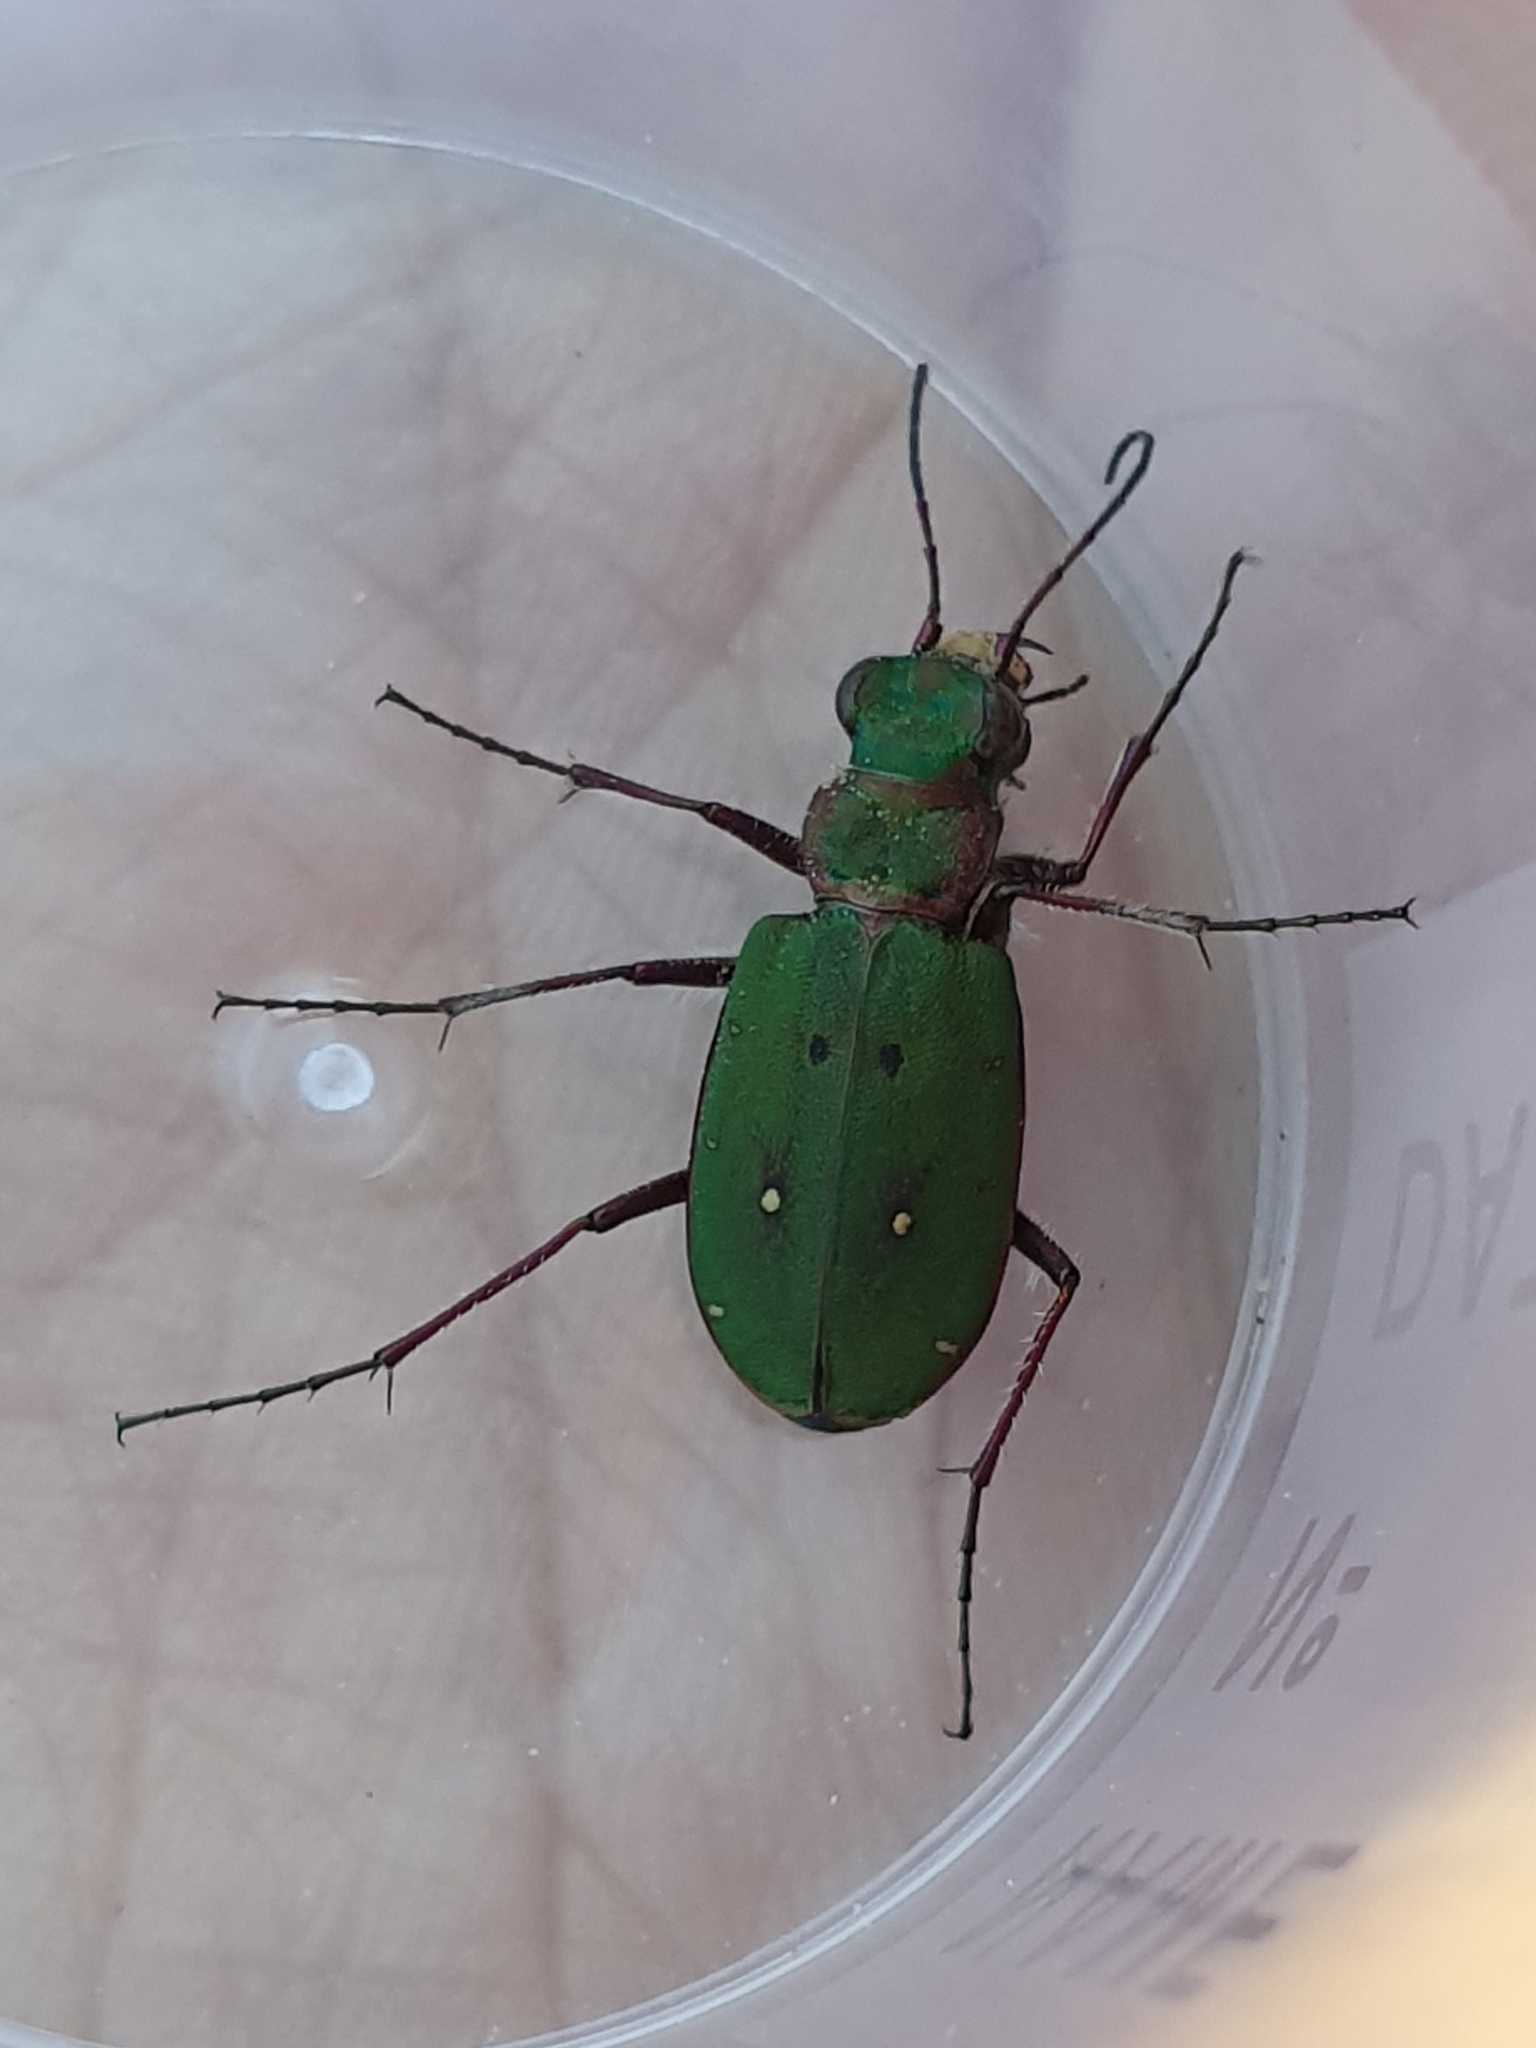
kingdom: Animalia
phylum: Arthropoda
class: Insecta
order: Coleoptera
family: Carabidae
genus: Cicindela
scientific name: Cicindela campestris
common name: Common tiger beetle
